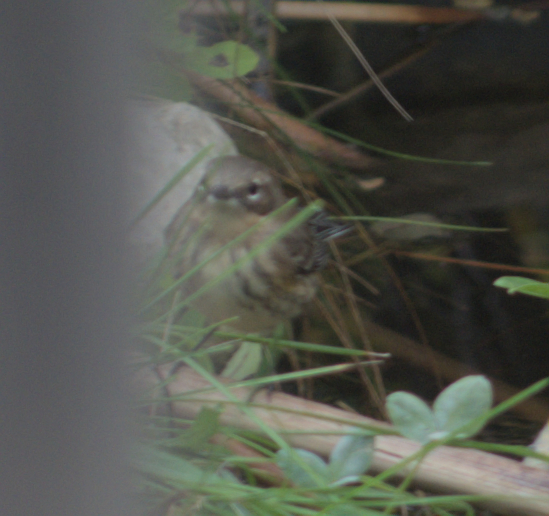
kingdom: Animalia
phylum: Chordata
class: Aves
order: Passeriformes
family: Parulidae
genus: Setophaga
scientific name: Setophaga coronata
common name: Myrtle warbler
